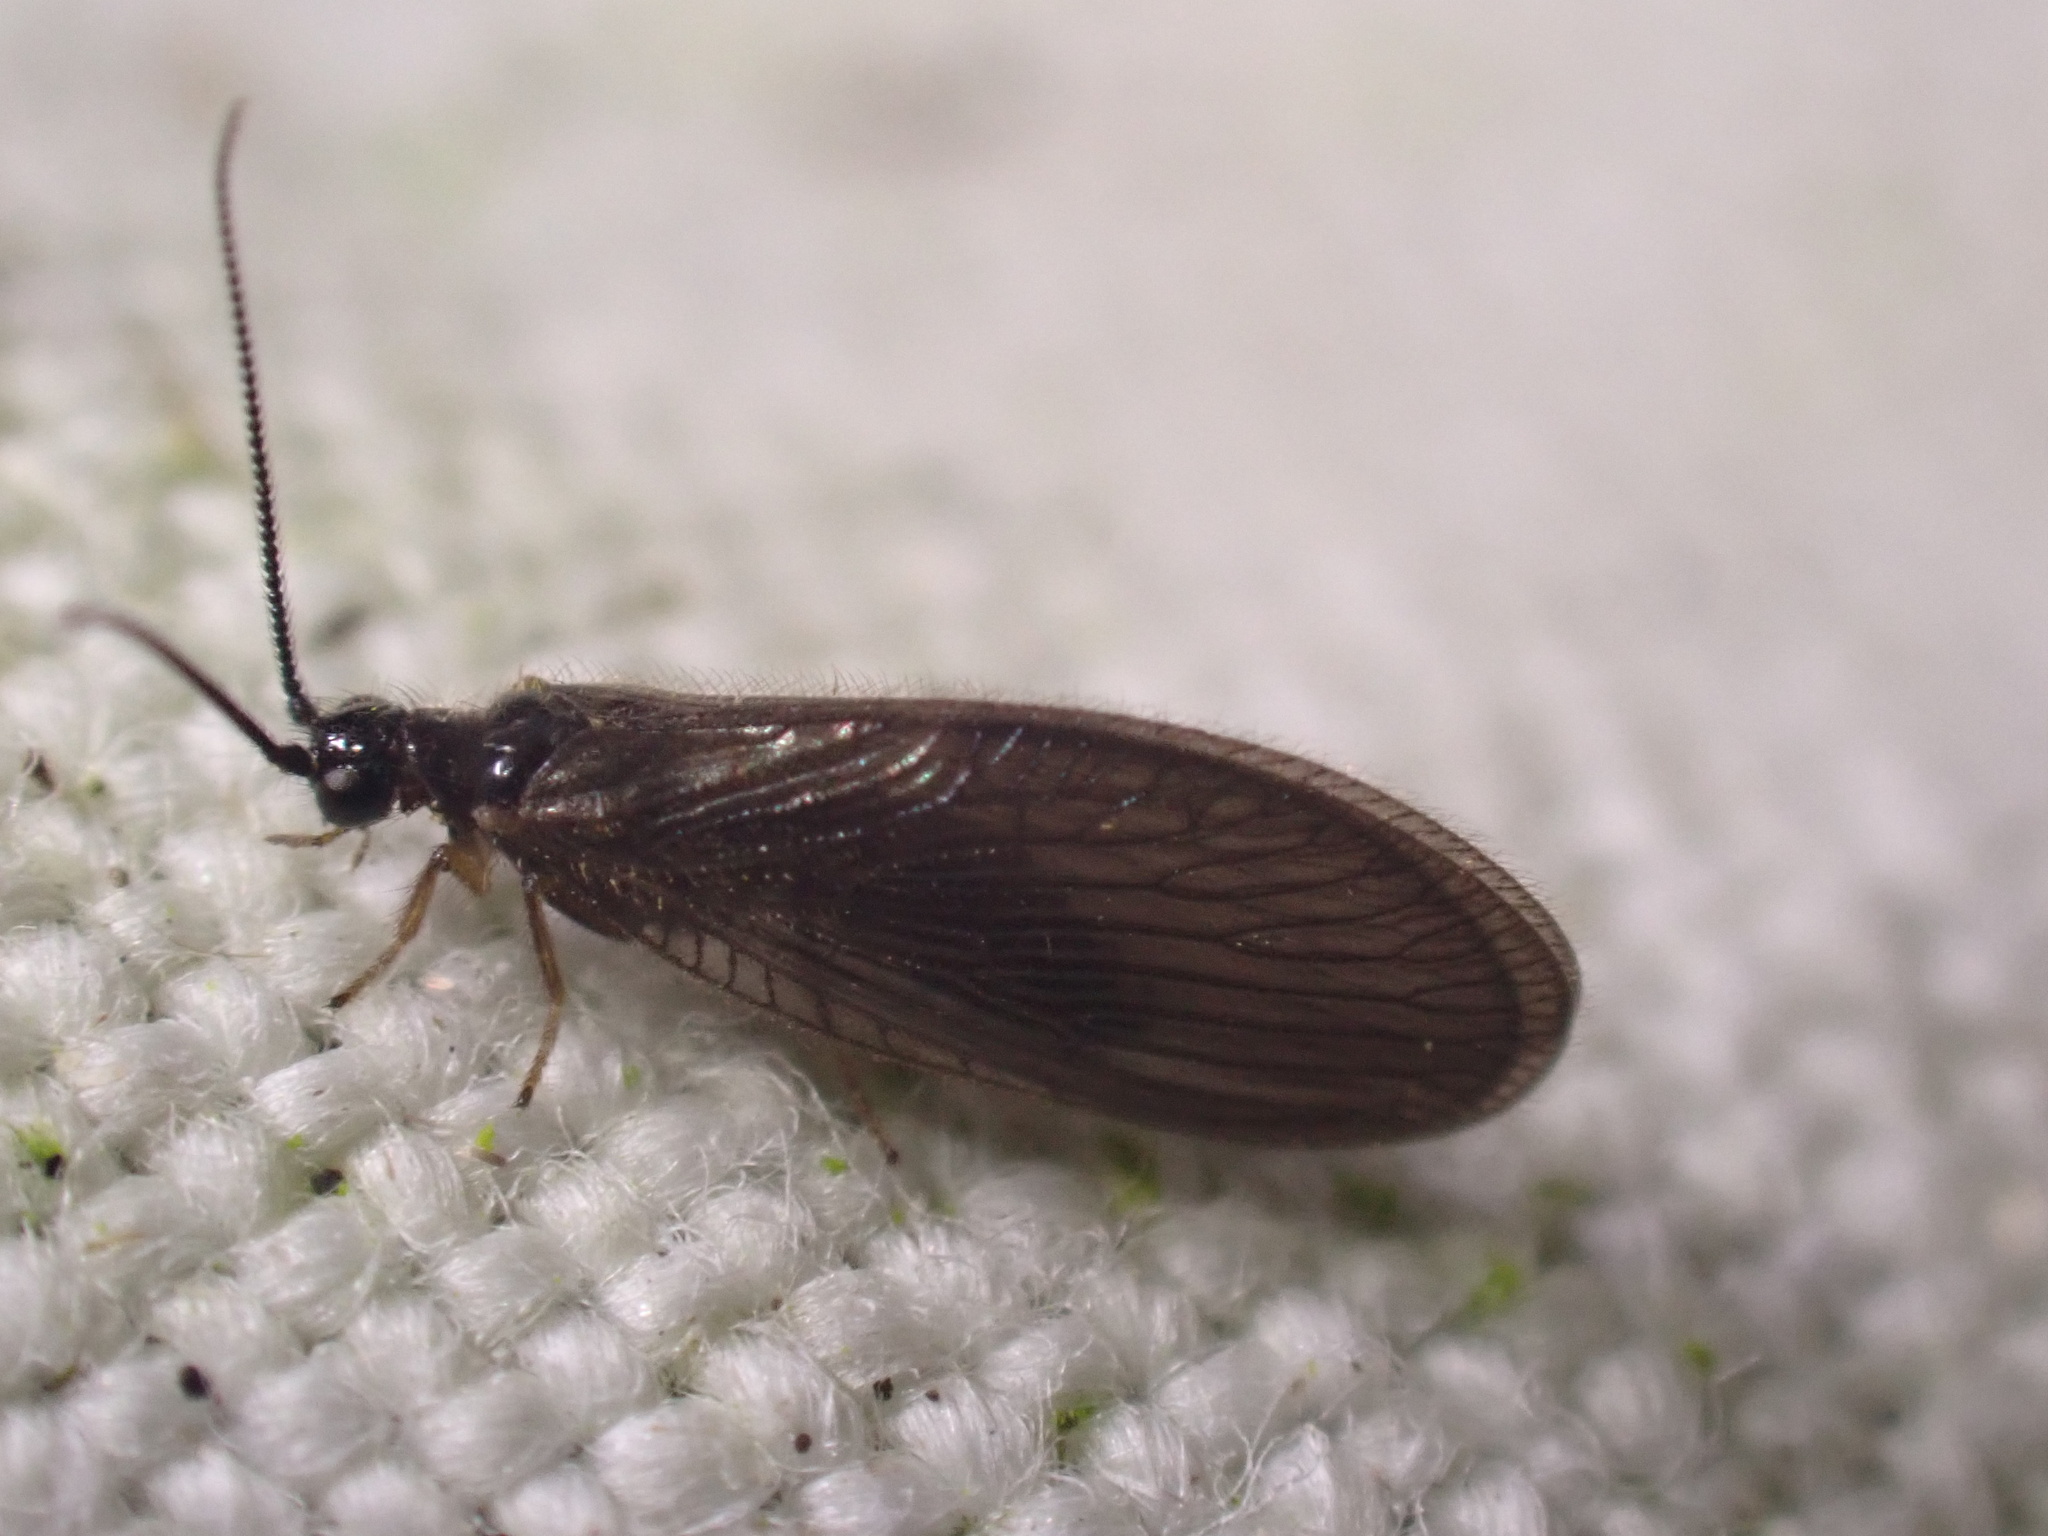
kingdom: Animalia
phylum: Arthropoda
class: Insecta
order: Neuroptera
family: Sisyridae
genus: Sisyra
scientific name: Sisyra nigra
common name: Black spongillafly
